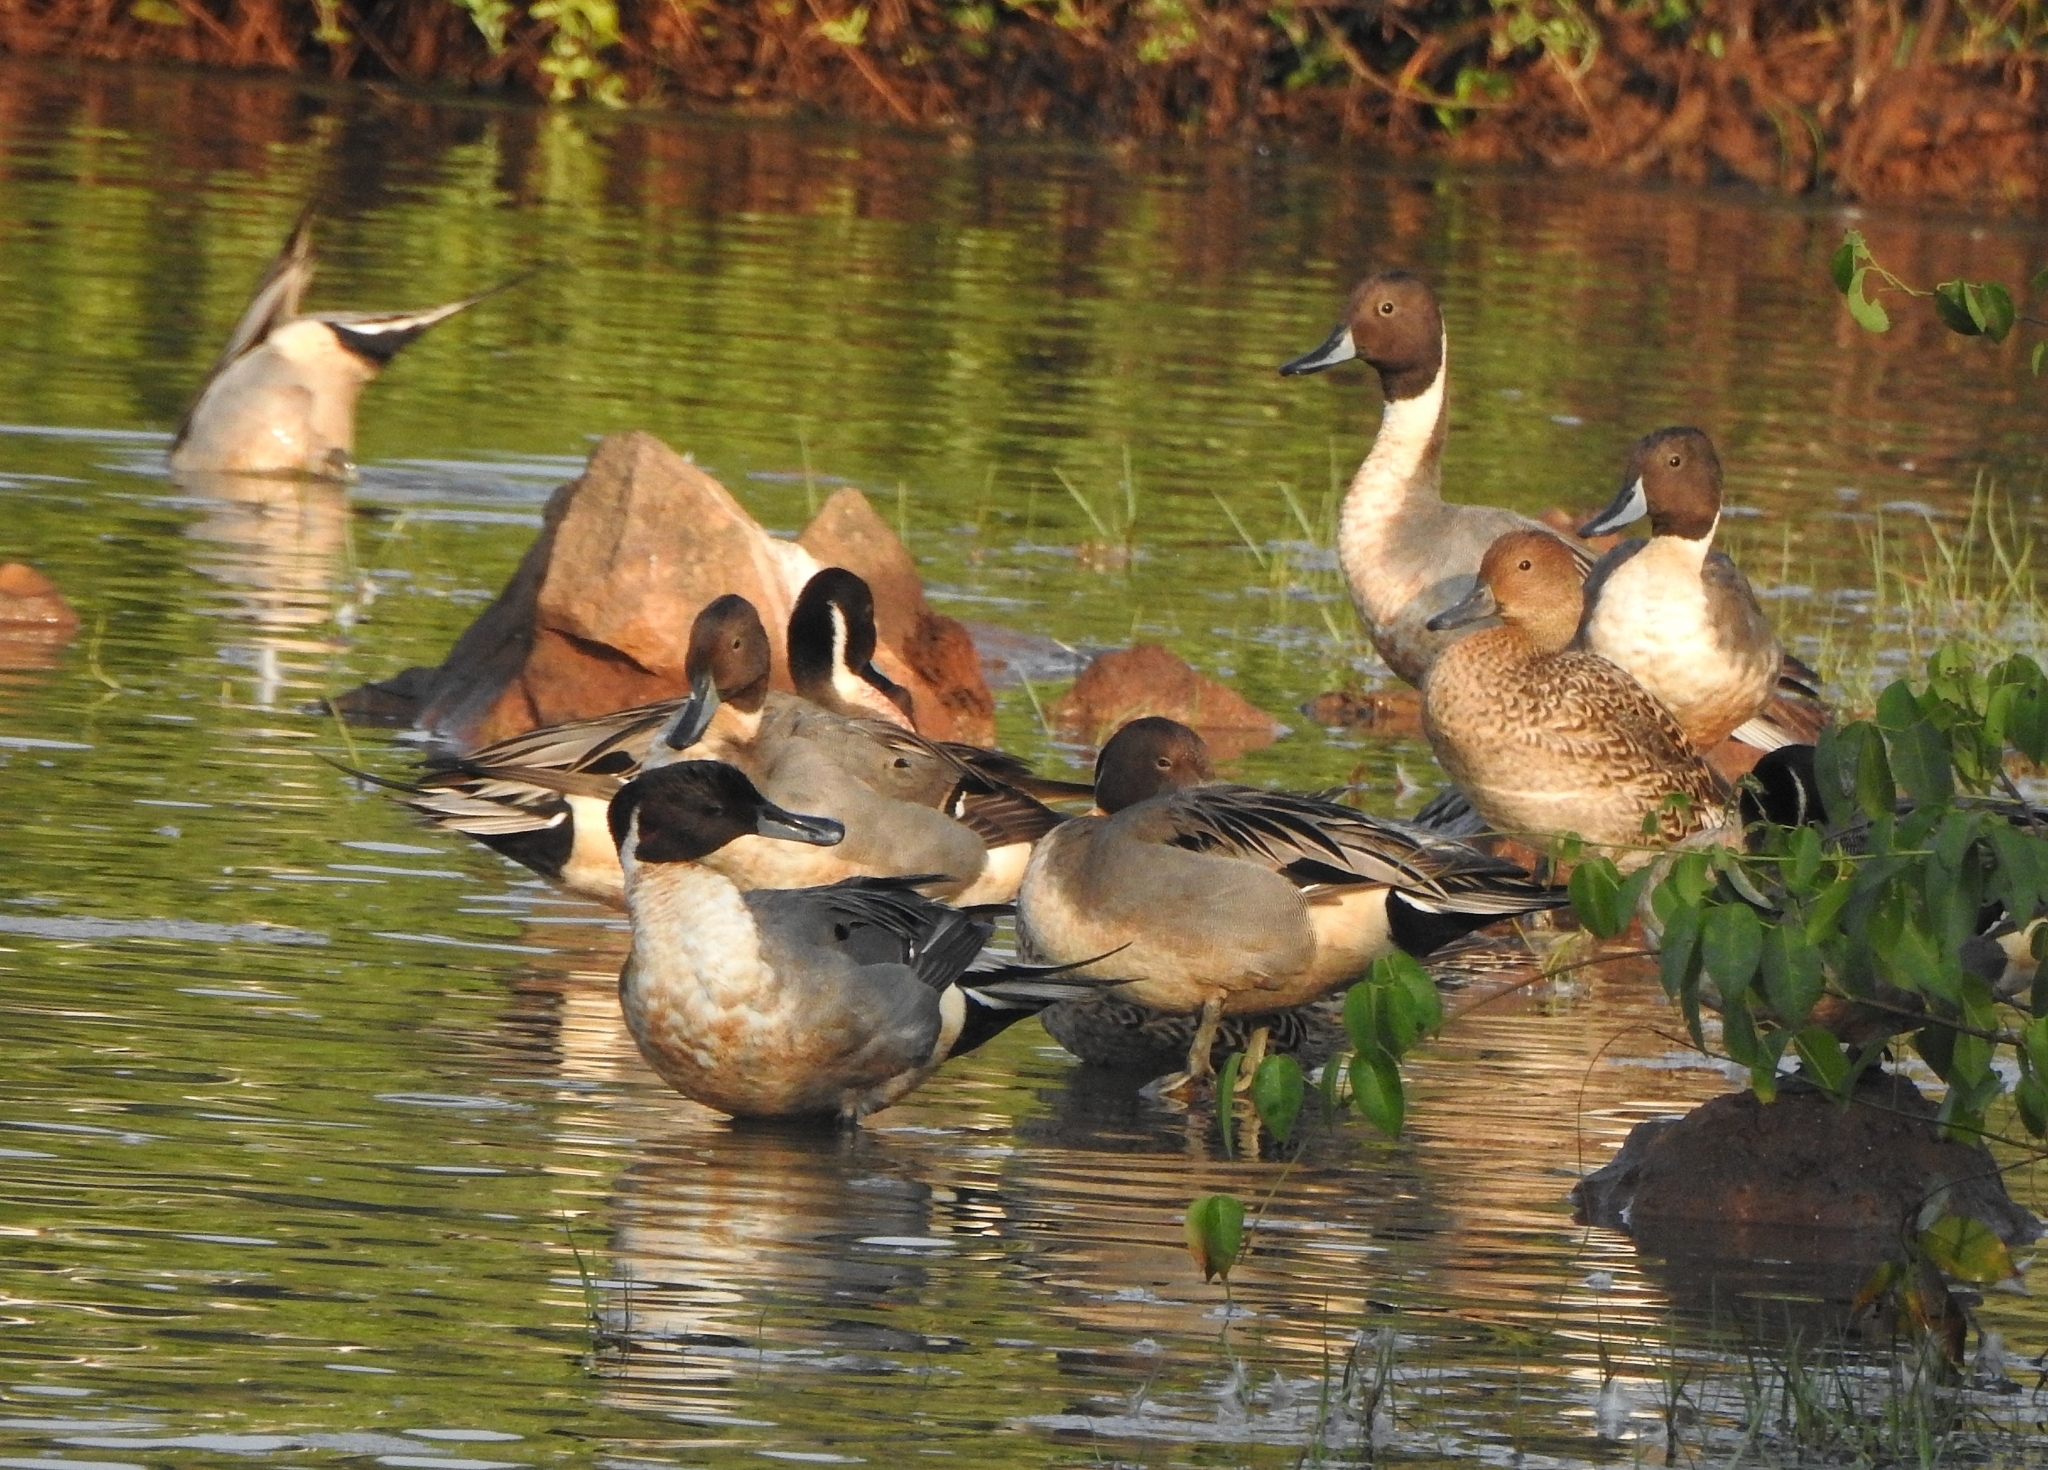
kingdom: Animalia
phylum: Chordata
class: Aves
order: Anseriformes
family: Anatidae
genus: Anas
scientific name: Anas acuta
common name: Northern pintail
